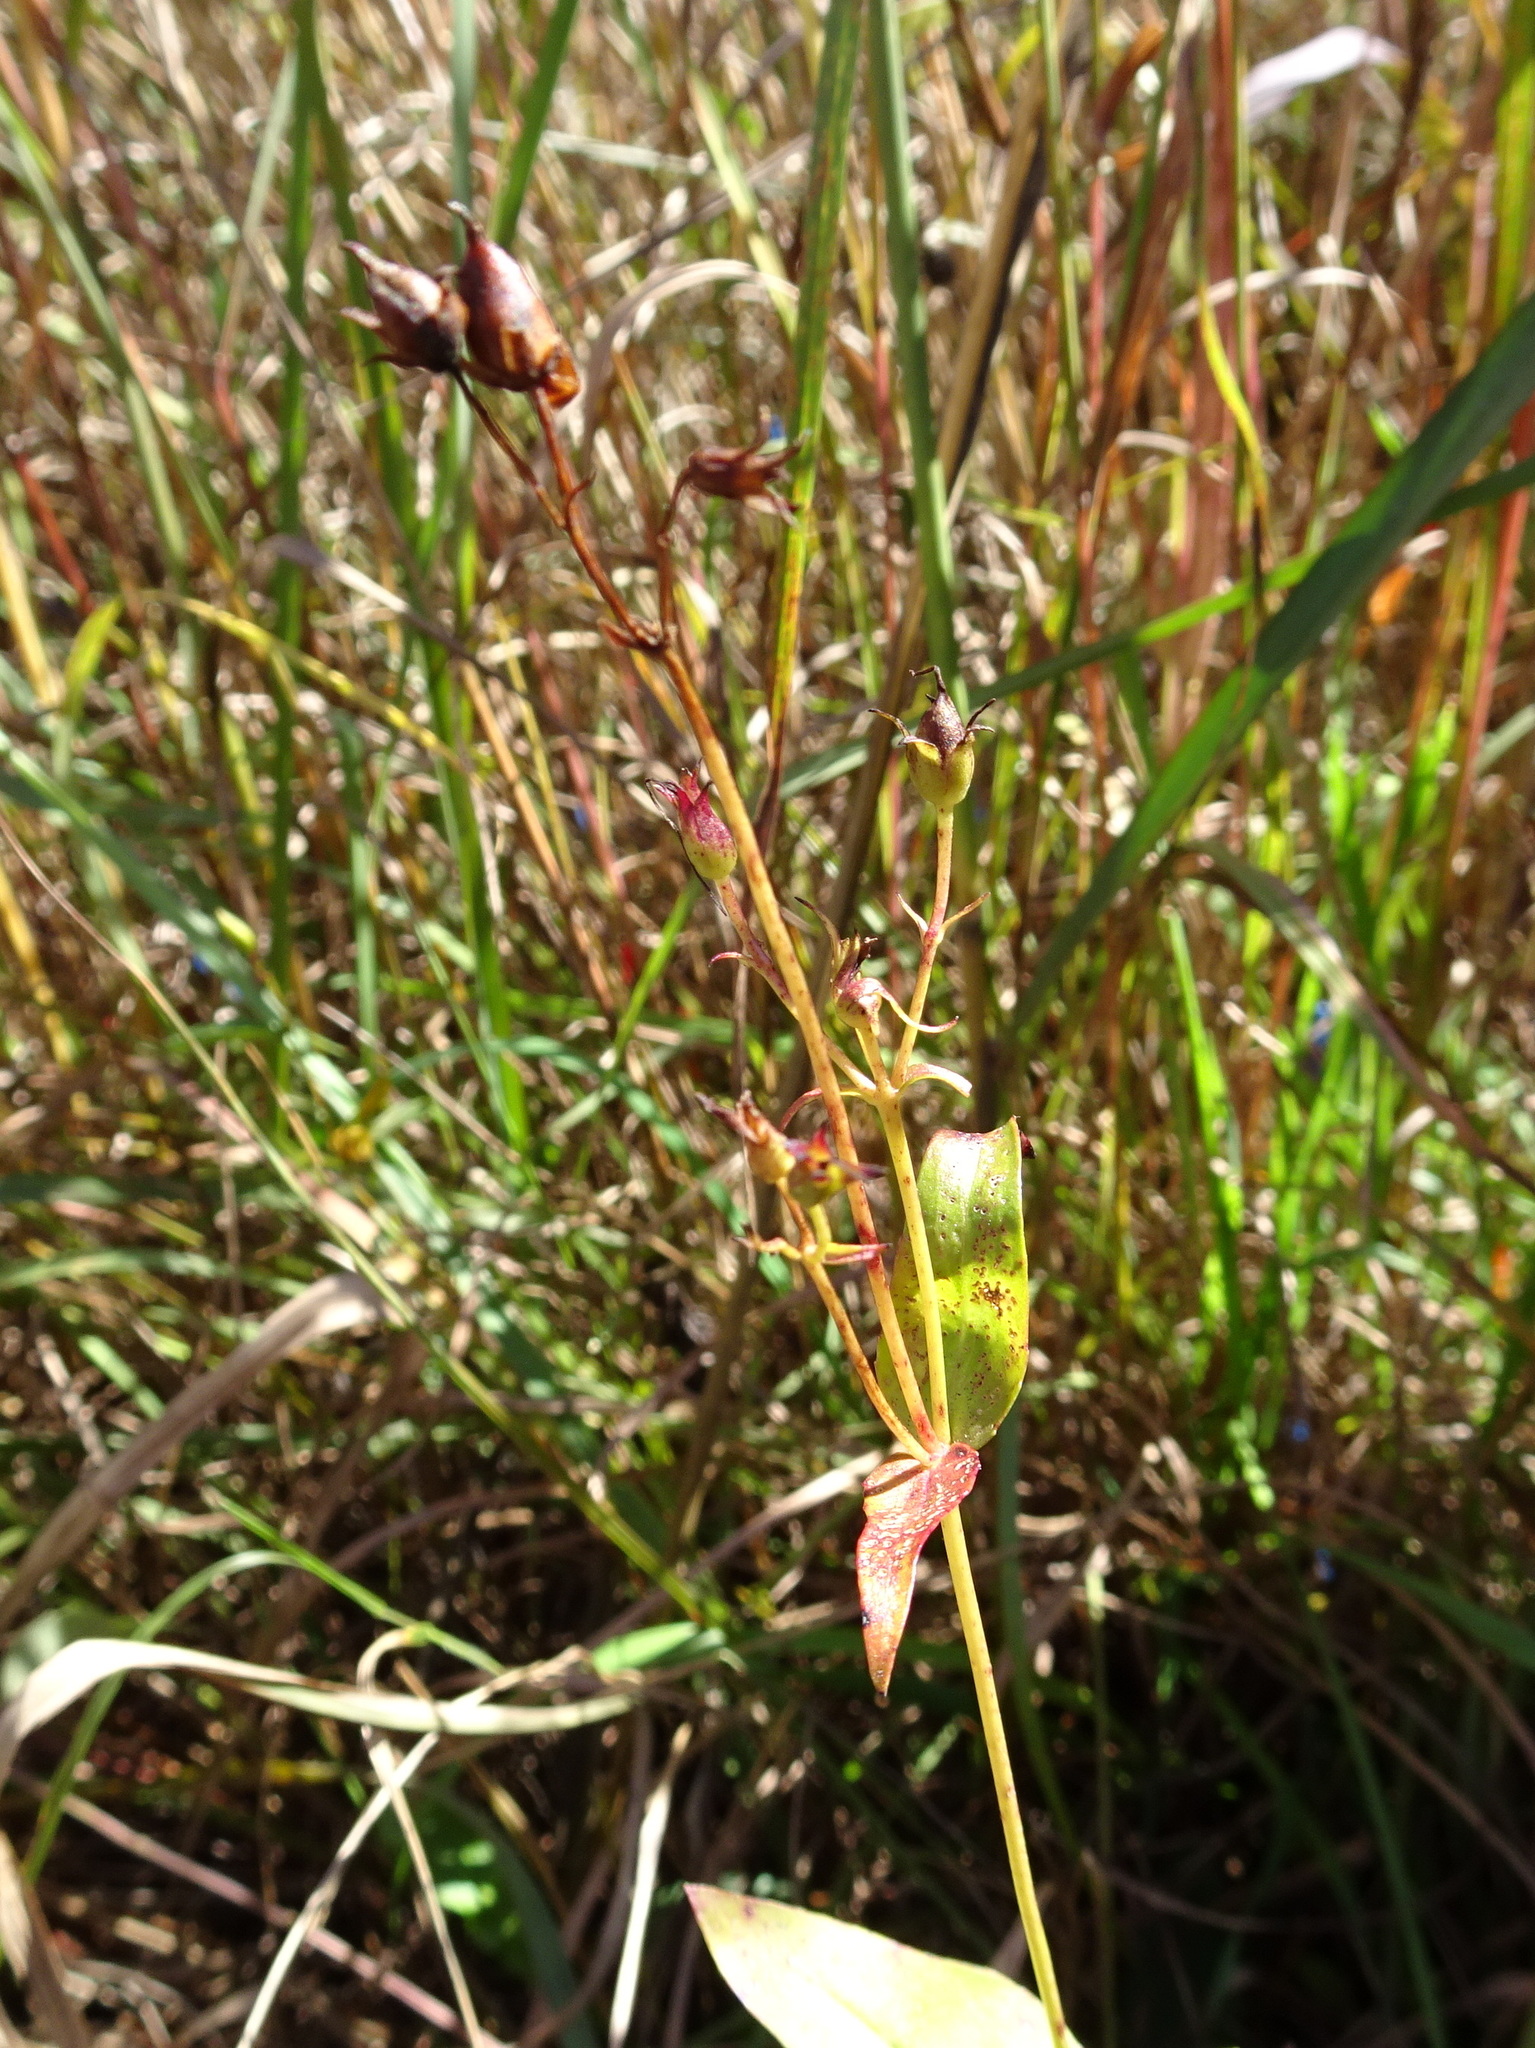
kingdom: Plantae
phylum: Tracheophyta
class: Magnoliopsida
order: Lamiales
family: Plantaginaceae
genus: Penstemon
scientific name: Penstemon digitalis
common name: Foxglove beardtongue
